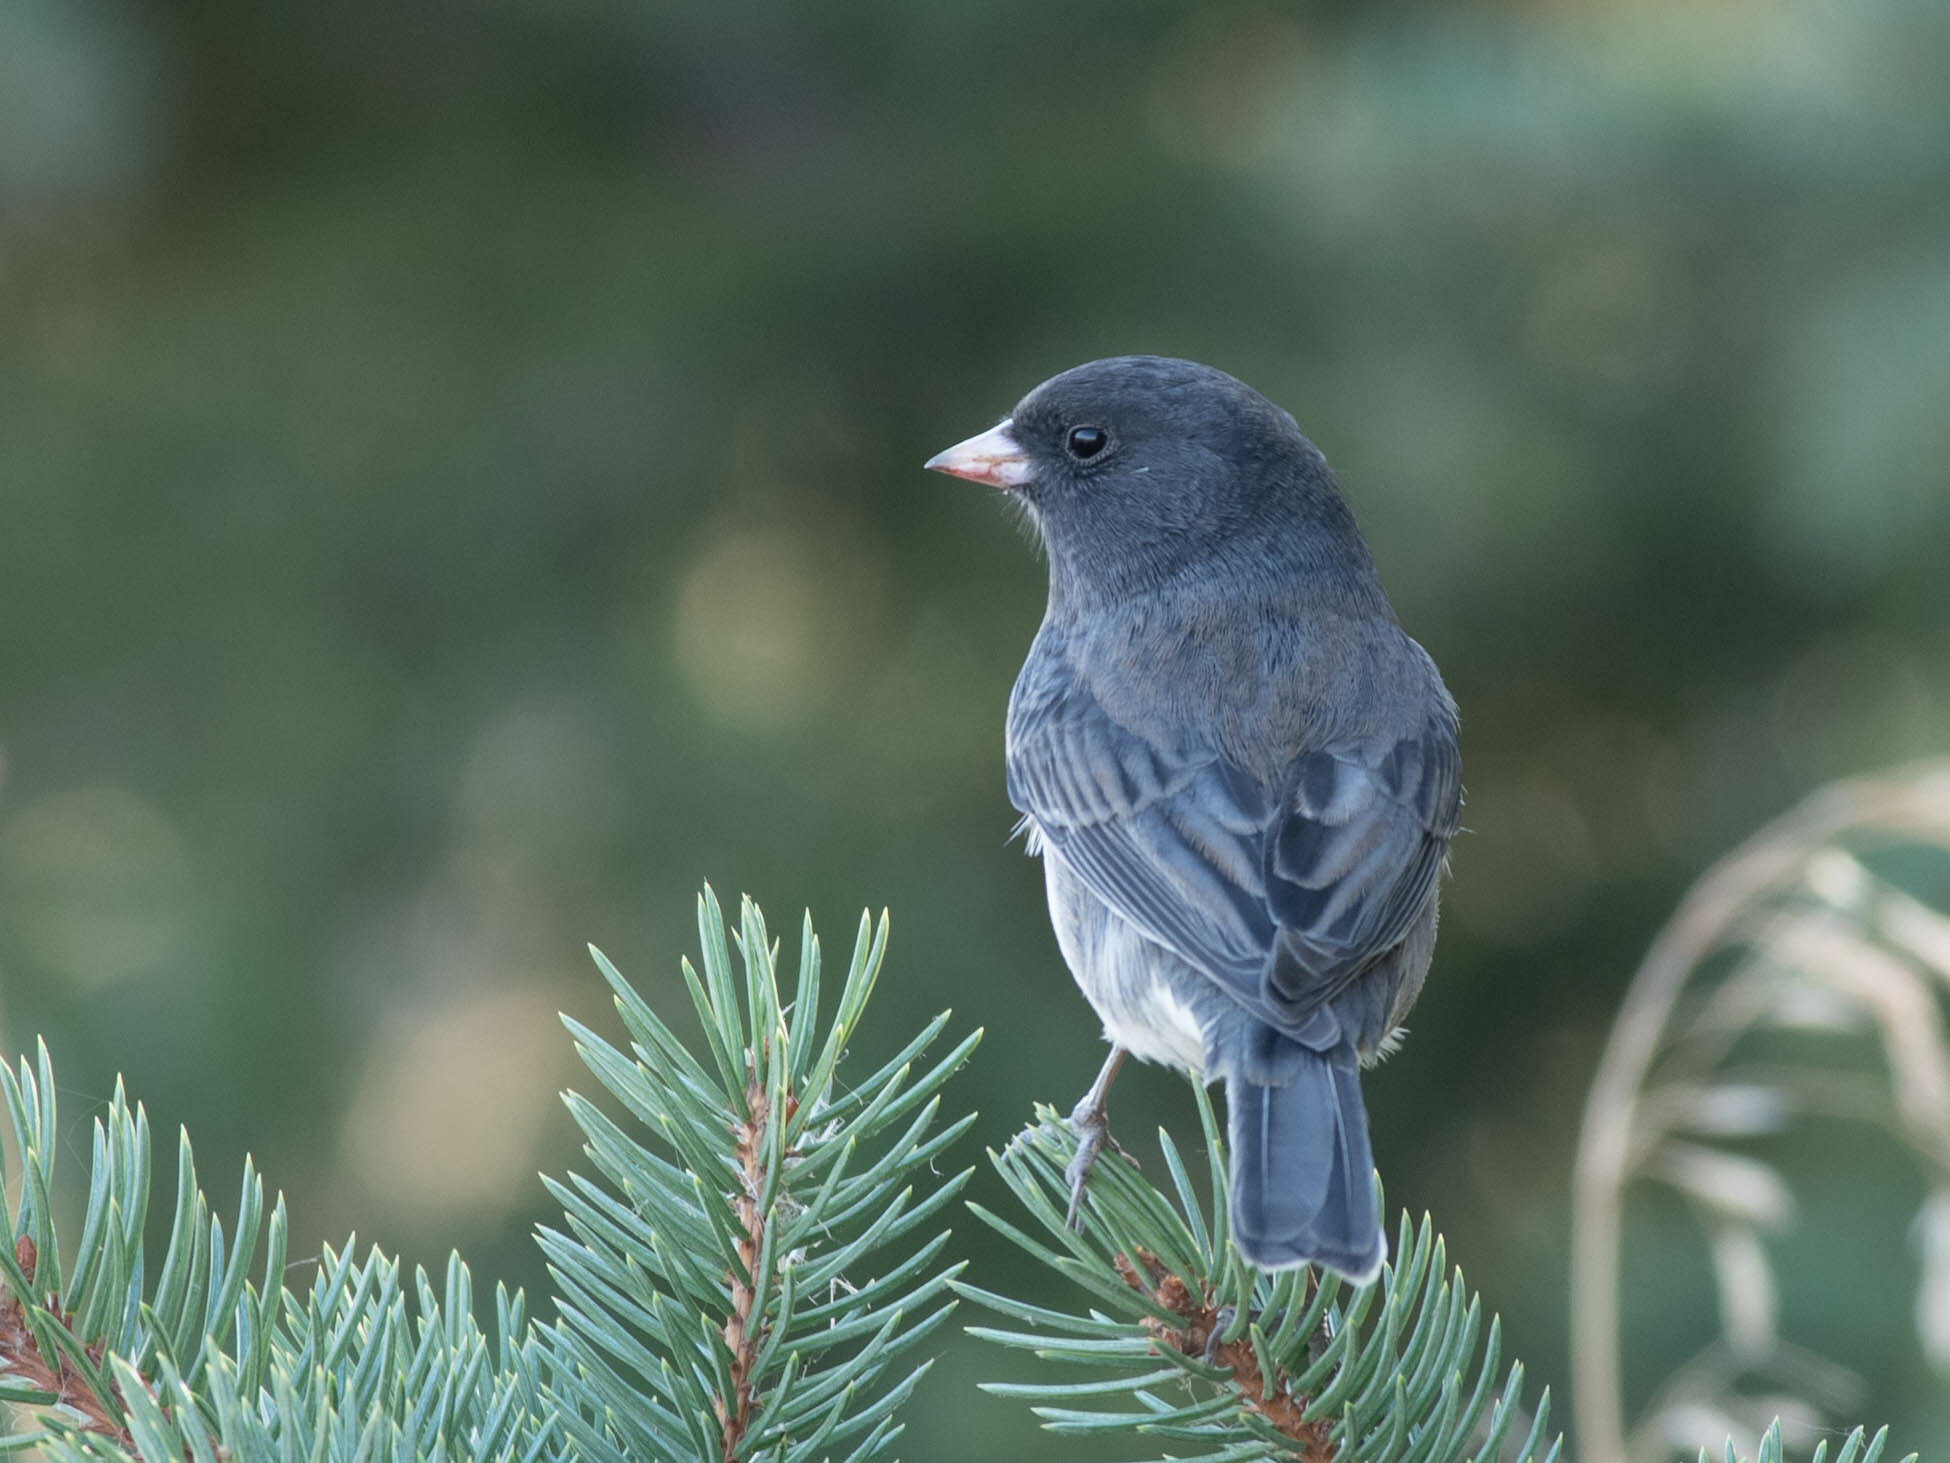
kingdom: Animalia
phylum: Chordata
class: Aves
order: Passeriformes
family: Passerellidae
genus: Junco
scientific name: Junco hyemalis
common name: Dark-eyed junco
